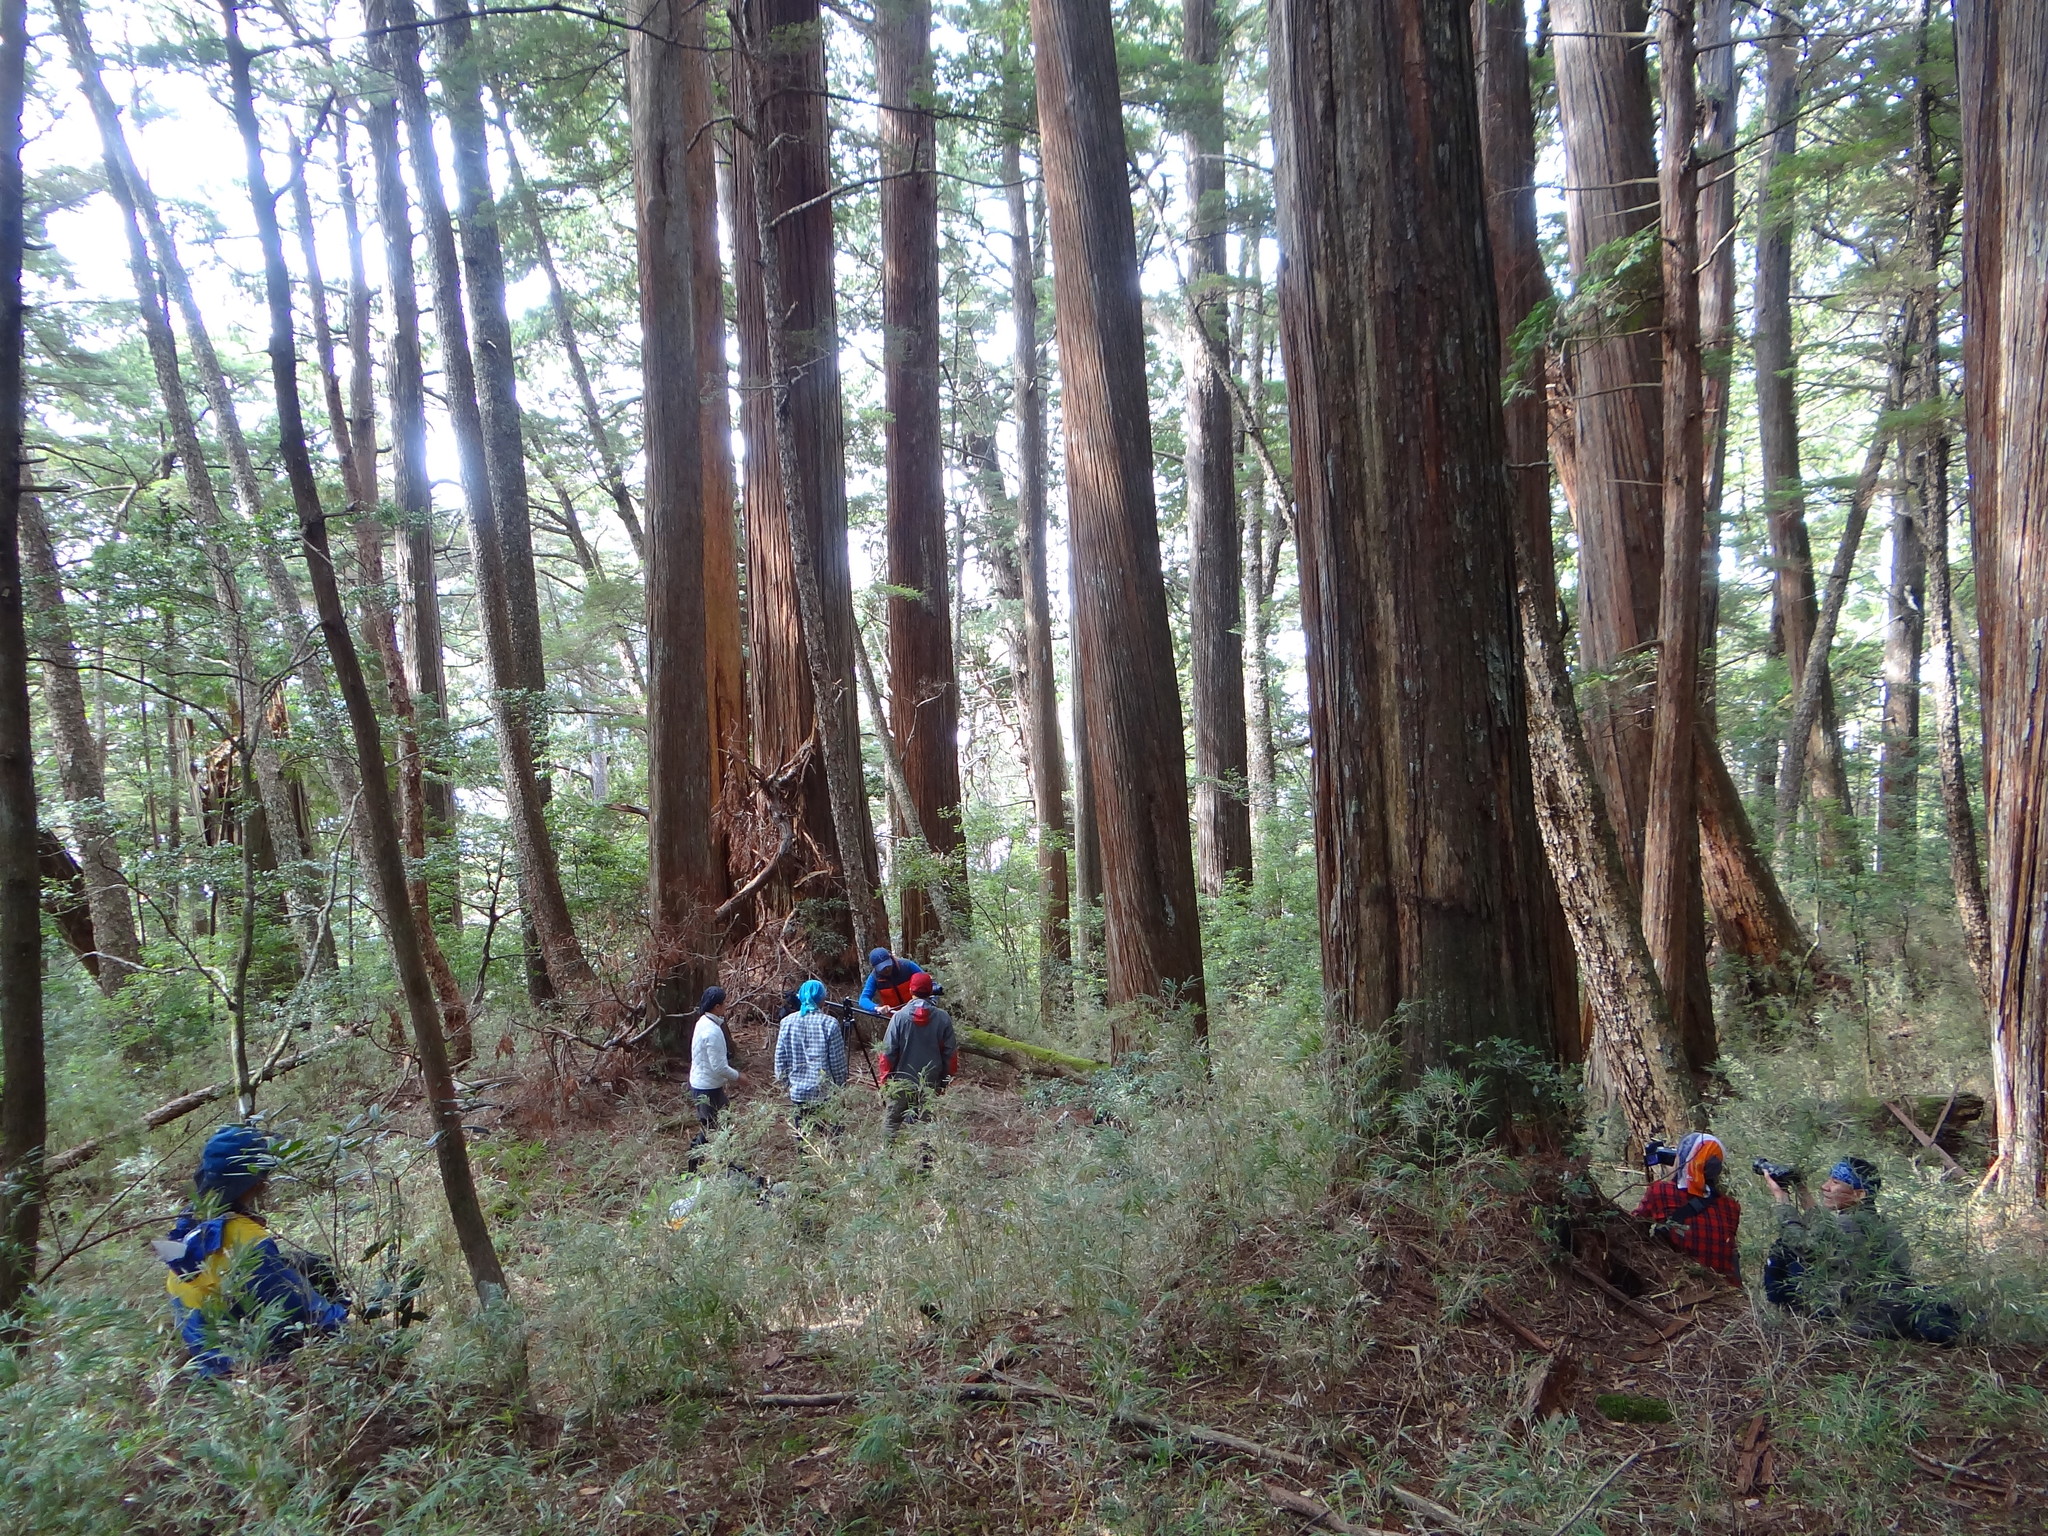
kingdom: Plantae
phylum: Tracheophyta
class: Pinopsida
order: Pinales
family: Cupressaceae
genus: Chamaecyparis
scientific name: Chamaecyparis obtusa
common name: Hinoki false cypress
